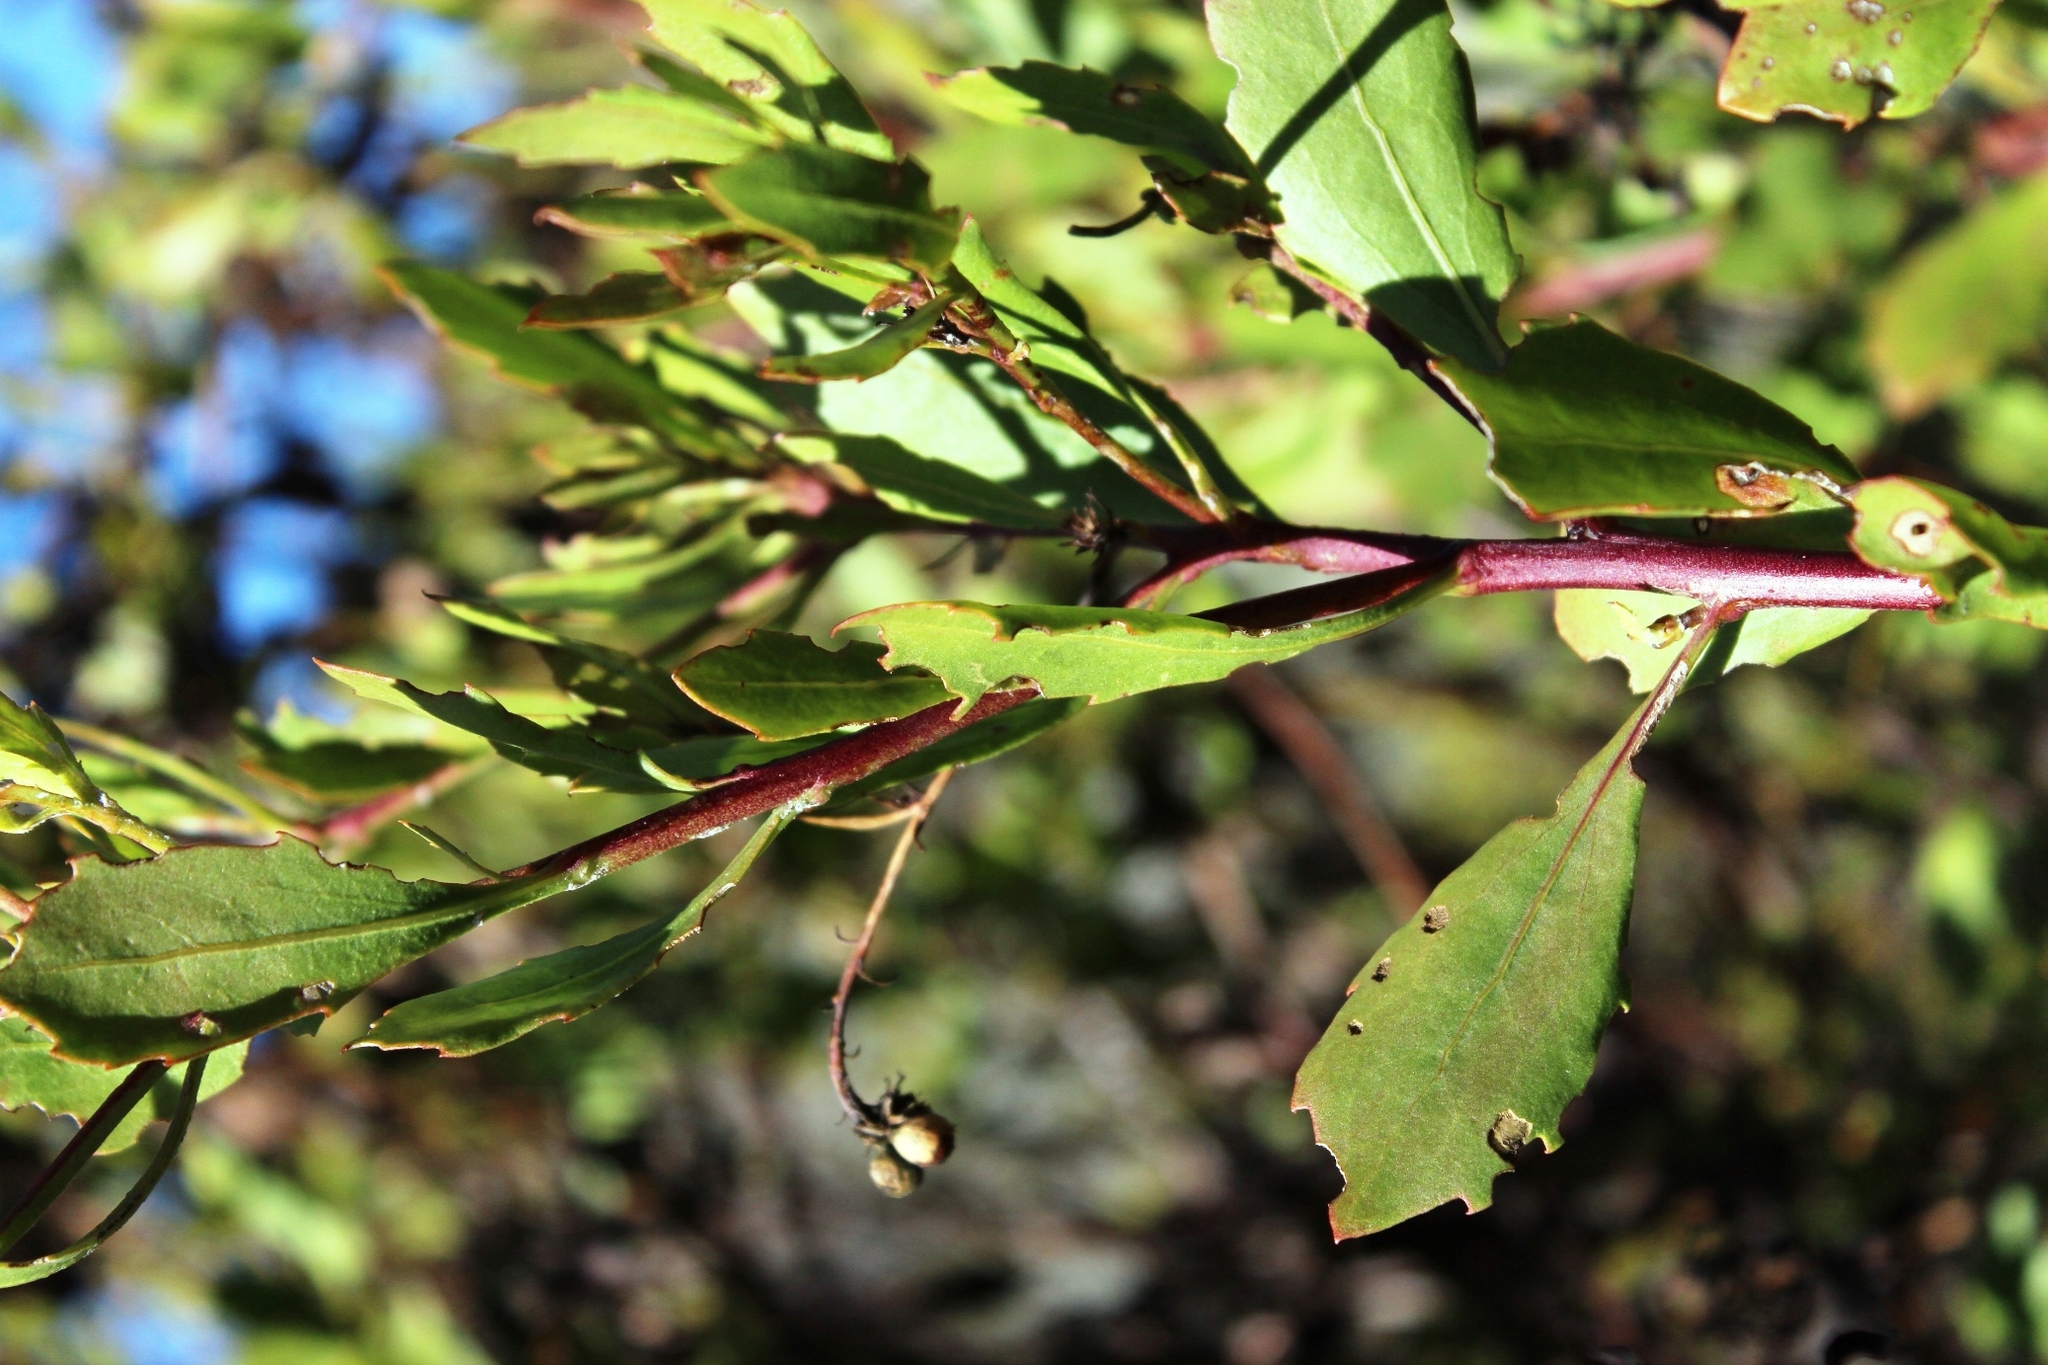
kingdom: Plantae
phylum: Tracheophyta
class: Magnoliopsida
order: Asterales
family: Asteraceae
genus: Osteospermum
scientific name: Osteospermum moniliferum
